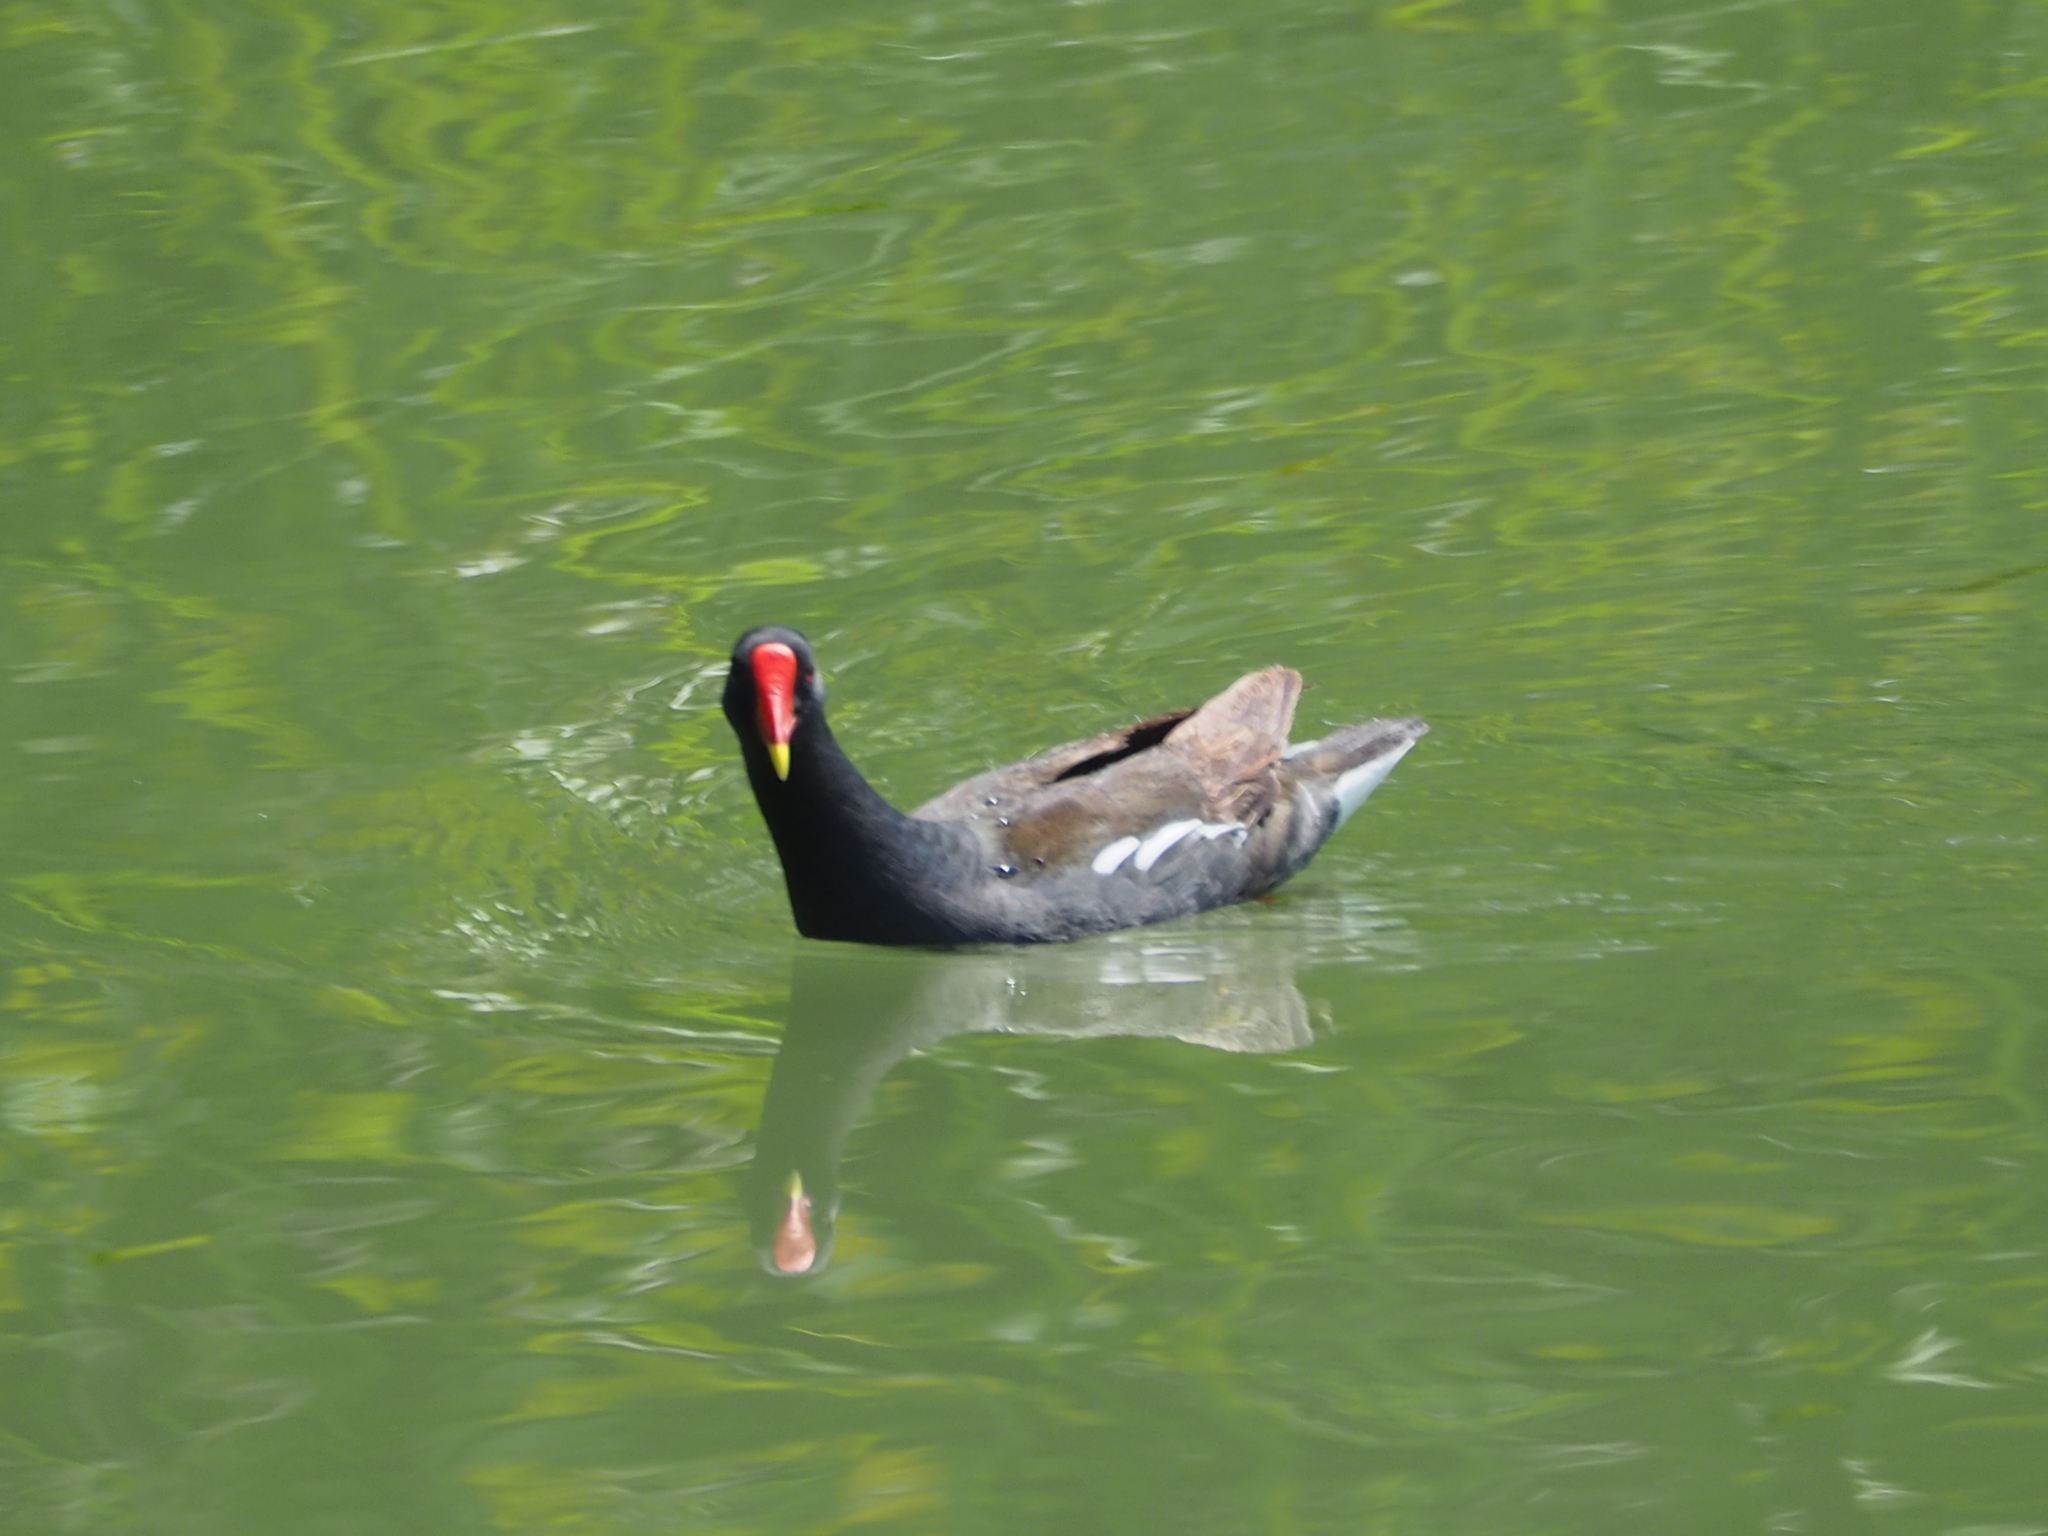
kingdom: Animalia
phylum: Chordata
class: Aves
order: Gruiformes
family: Rallidae
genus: Gallinula
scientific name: Gallinula chloropus
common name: Common moorhen
